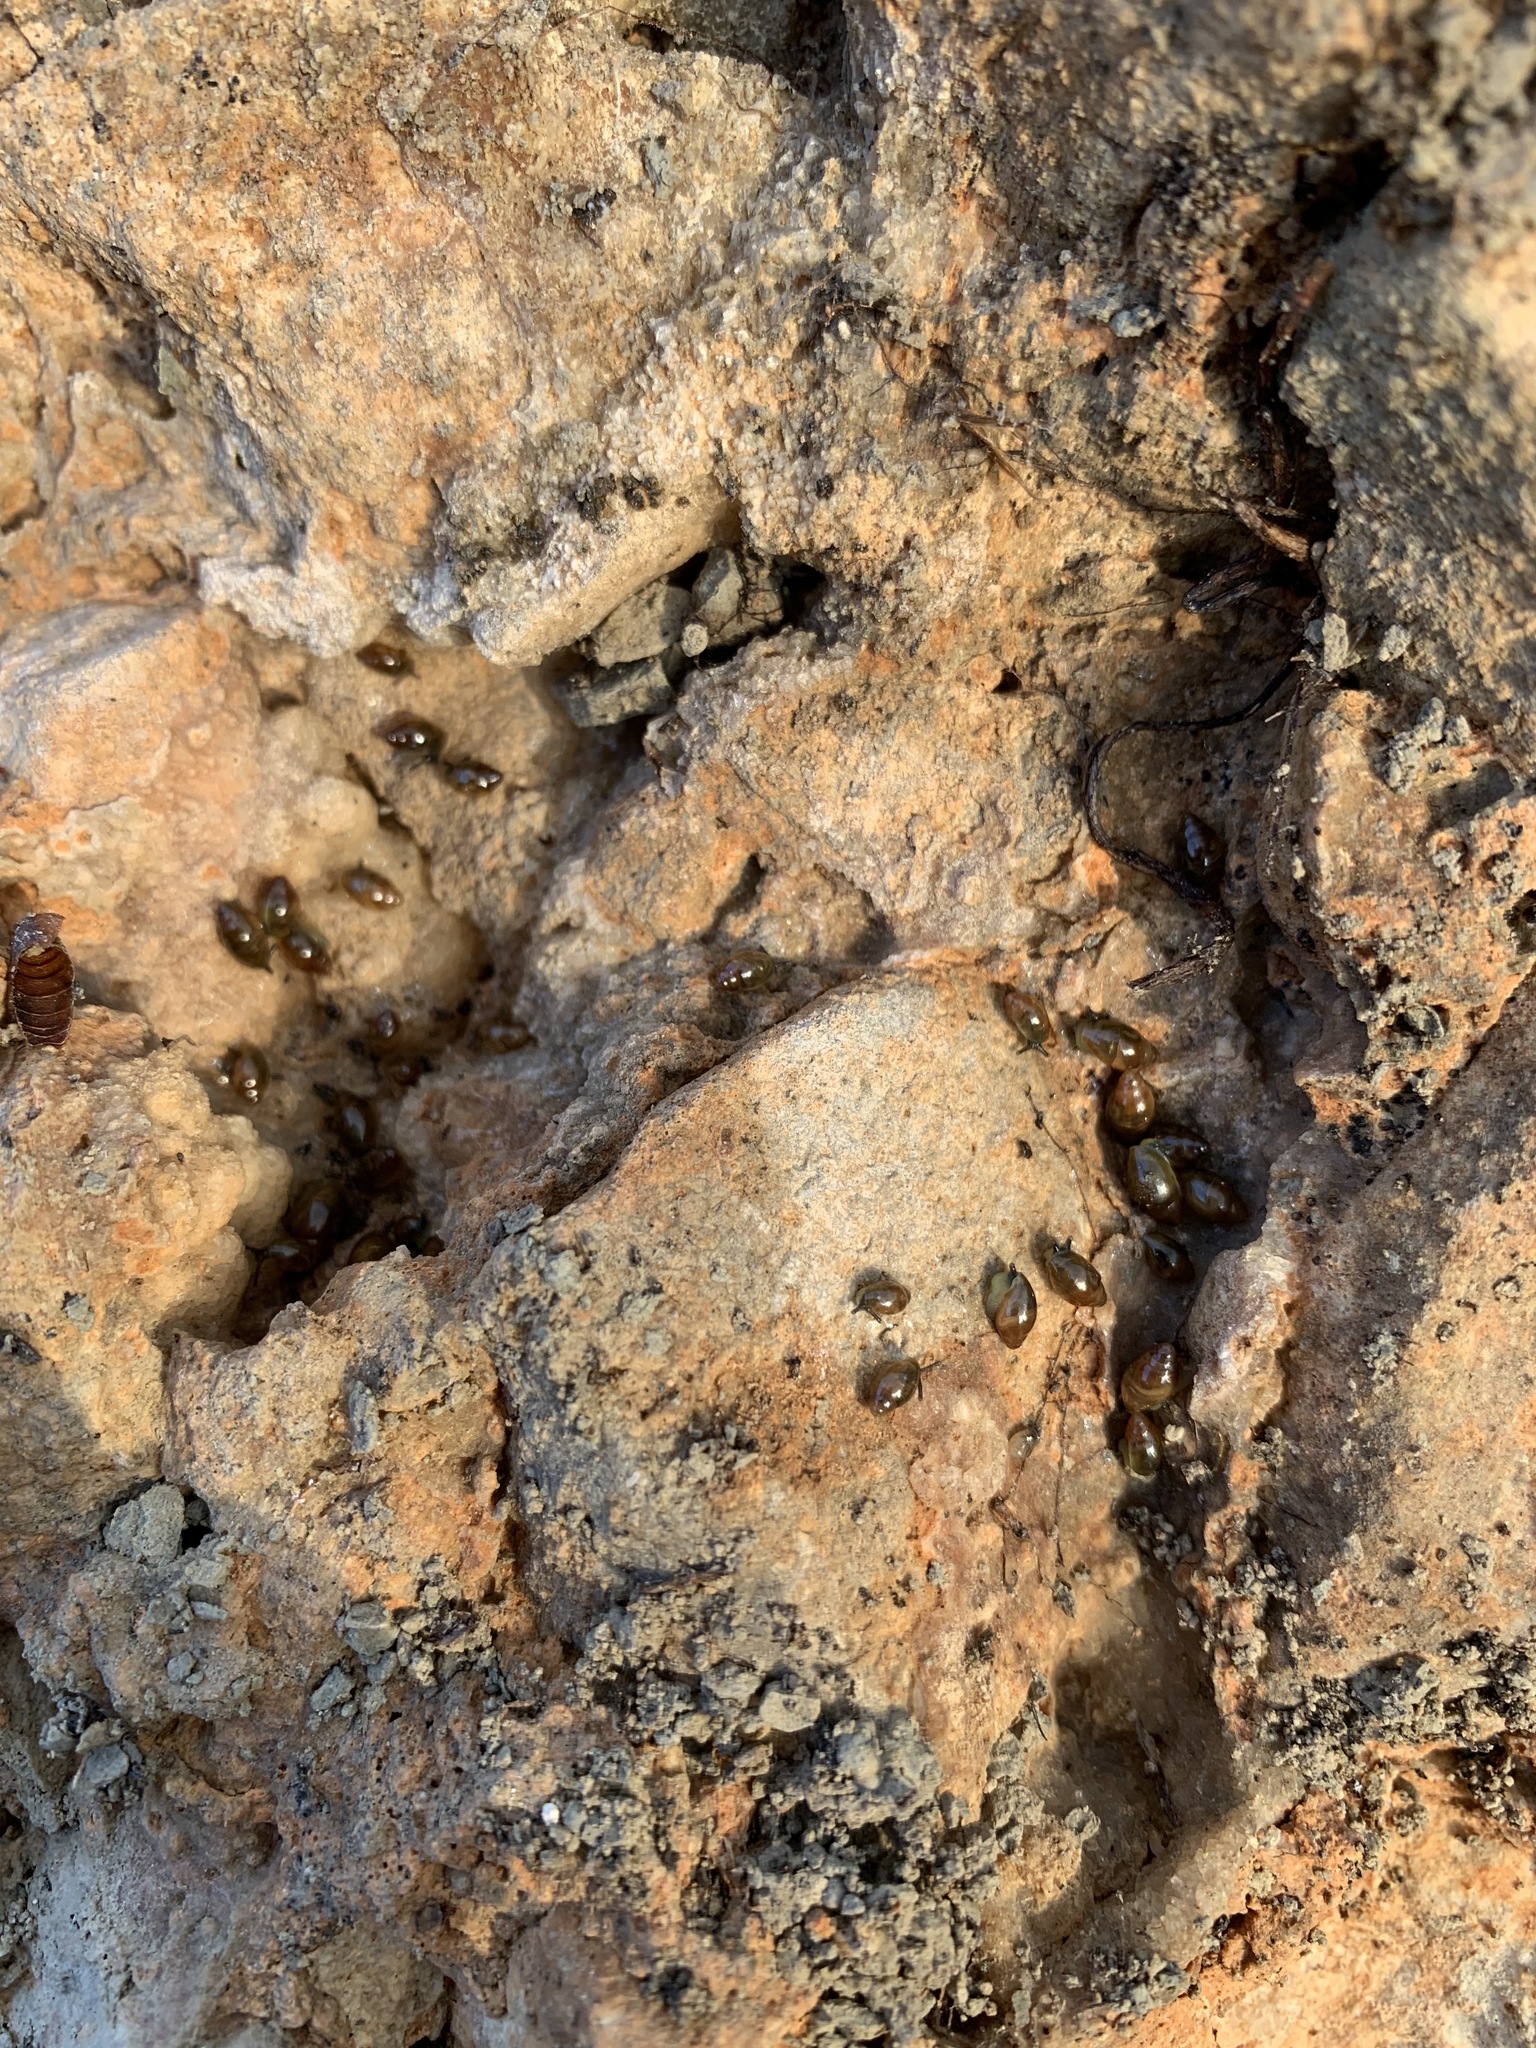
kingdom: Animalia
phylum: Mollusca
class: Gastropoda
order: Stylommatophora
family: Ferussaciidae
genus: Ferussacia
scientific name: Ferussacia folliculum
